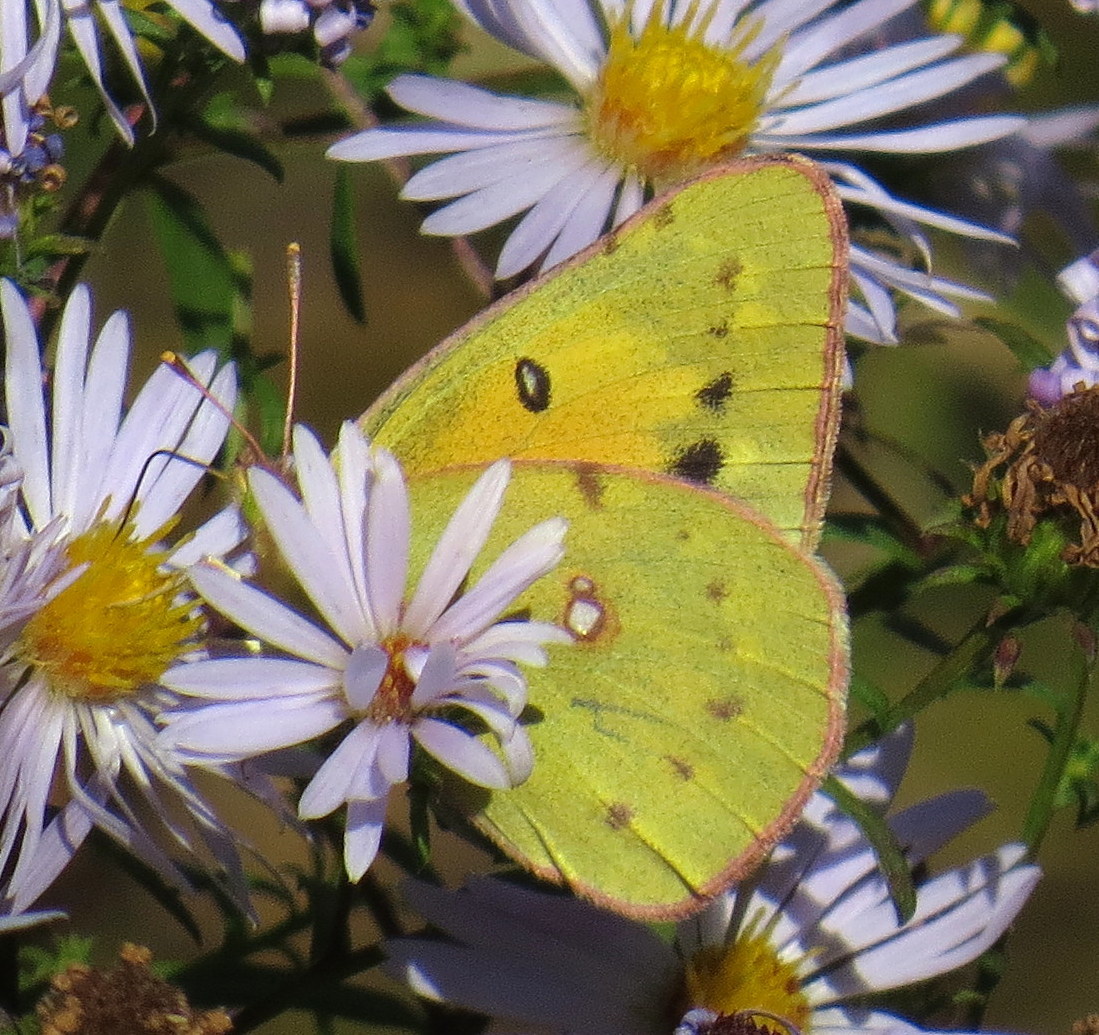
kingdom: Animalia
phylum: Arthropoda
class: Insecta
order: Lepidoptera
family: Pieridae
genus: Colias
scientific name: Colias eurytheme
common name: Alfalfa butterfly
